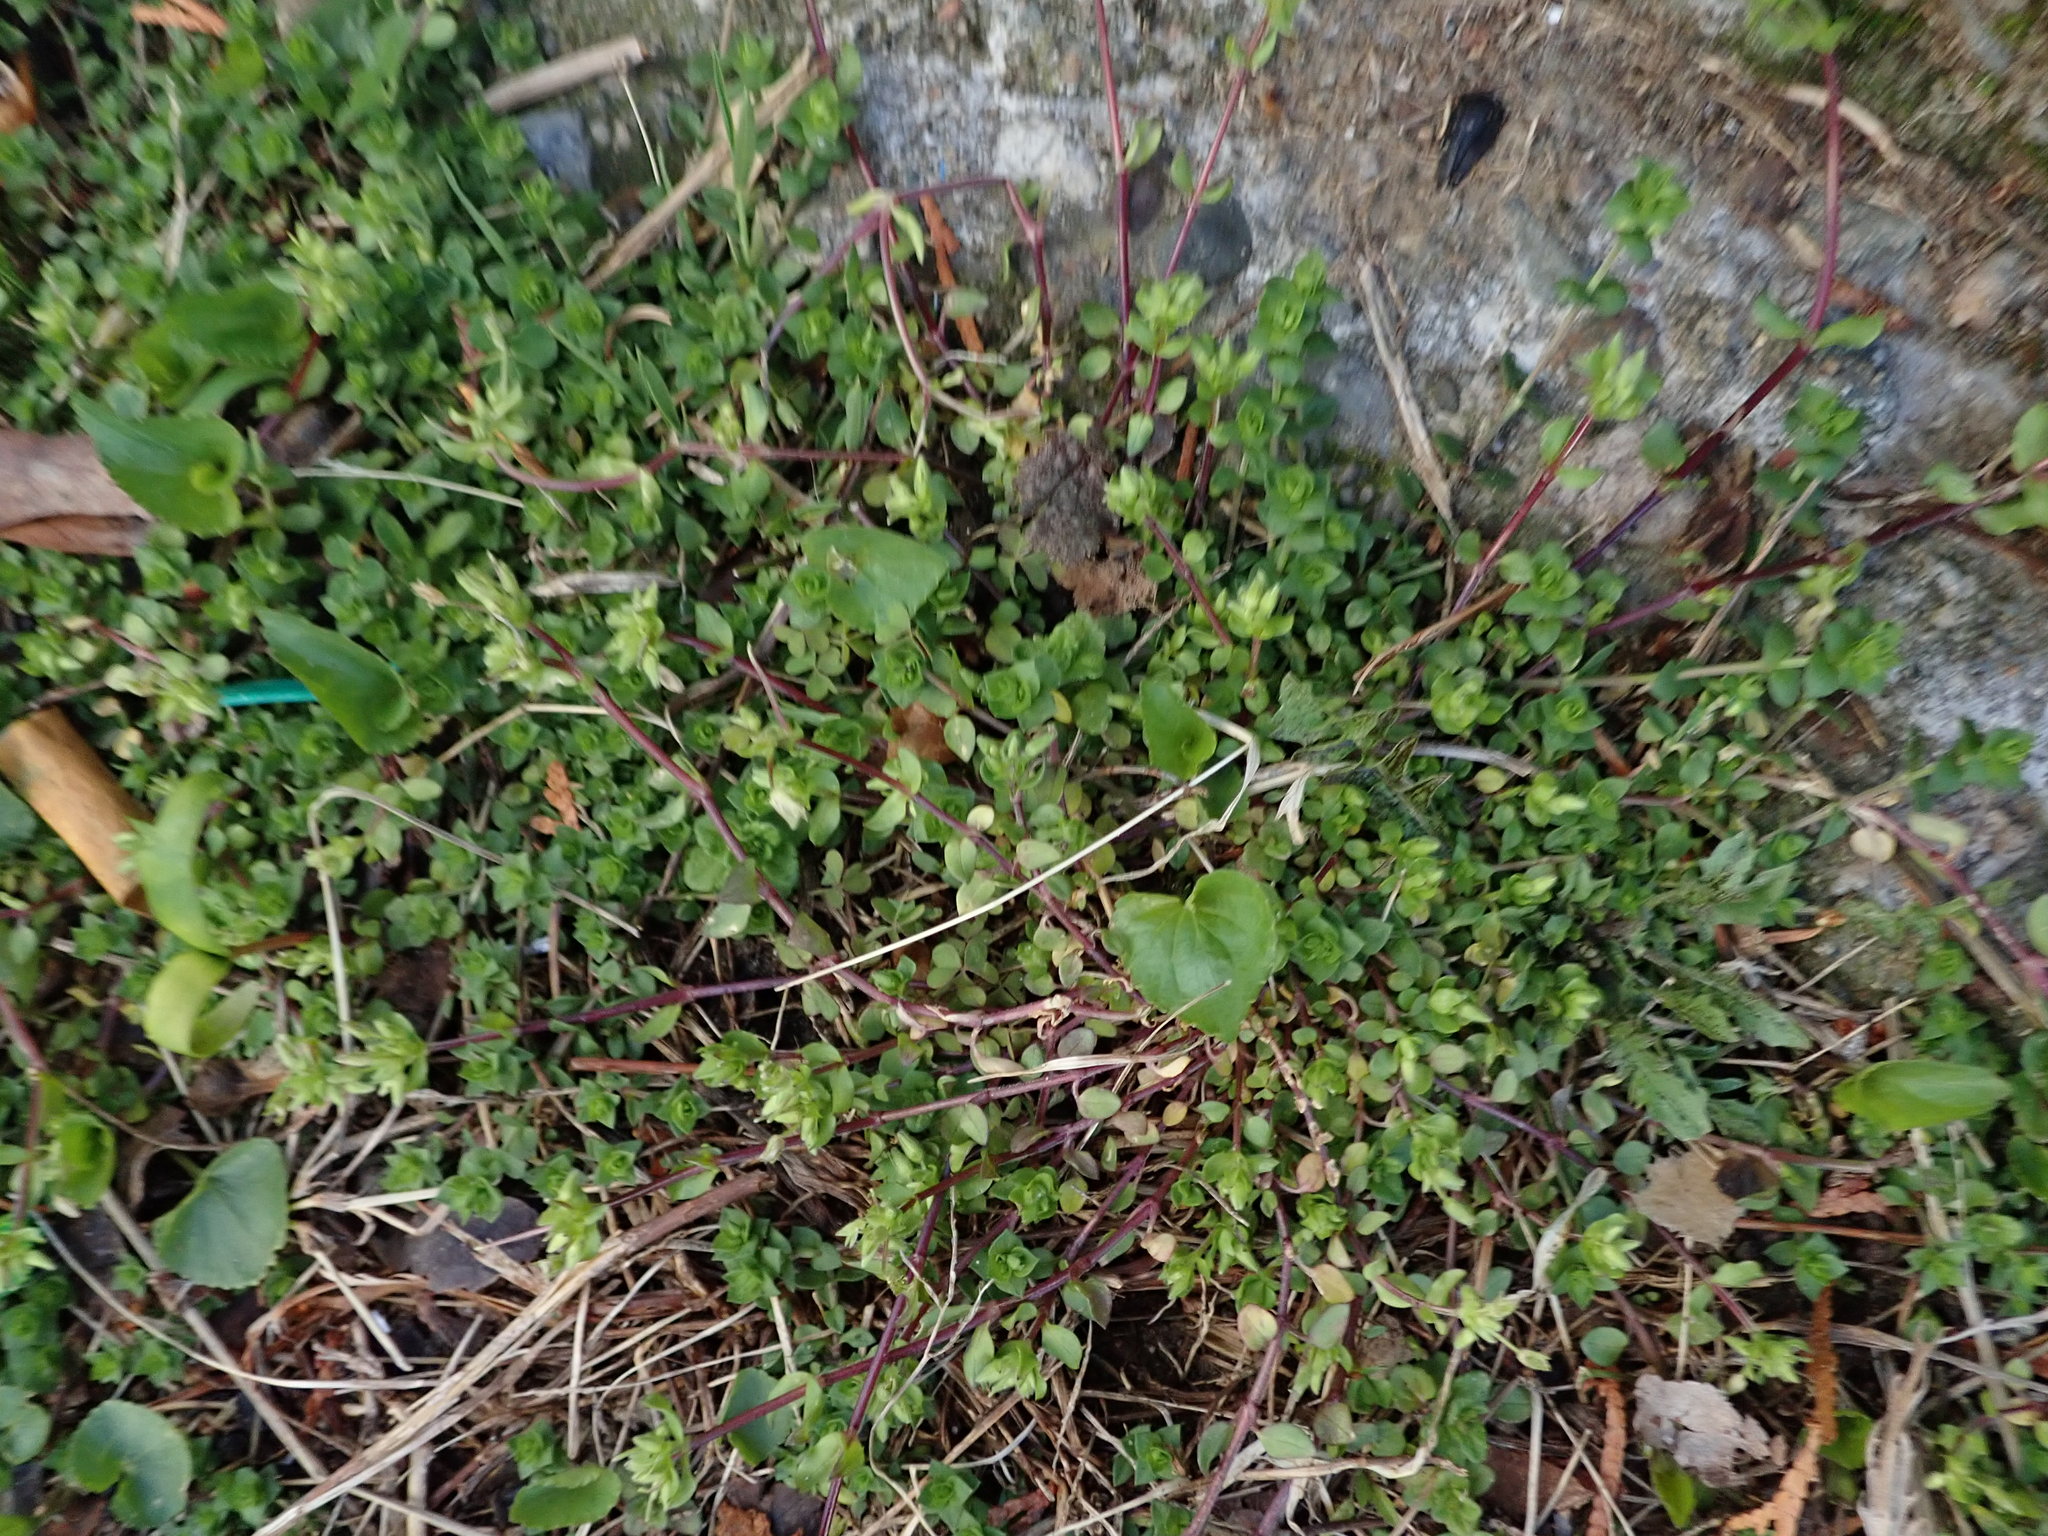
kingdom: Plantae
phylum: Tracheophyta
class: Magnoliopsida
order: Caryophyllales
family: Caryophyllaceae
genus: Stellaria
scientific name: Stellaria media
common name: Common chickweed
